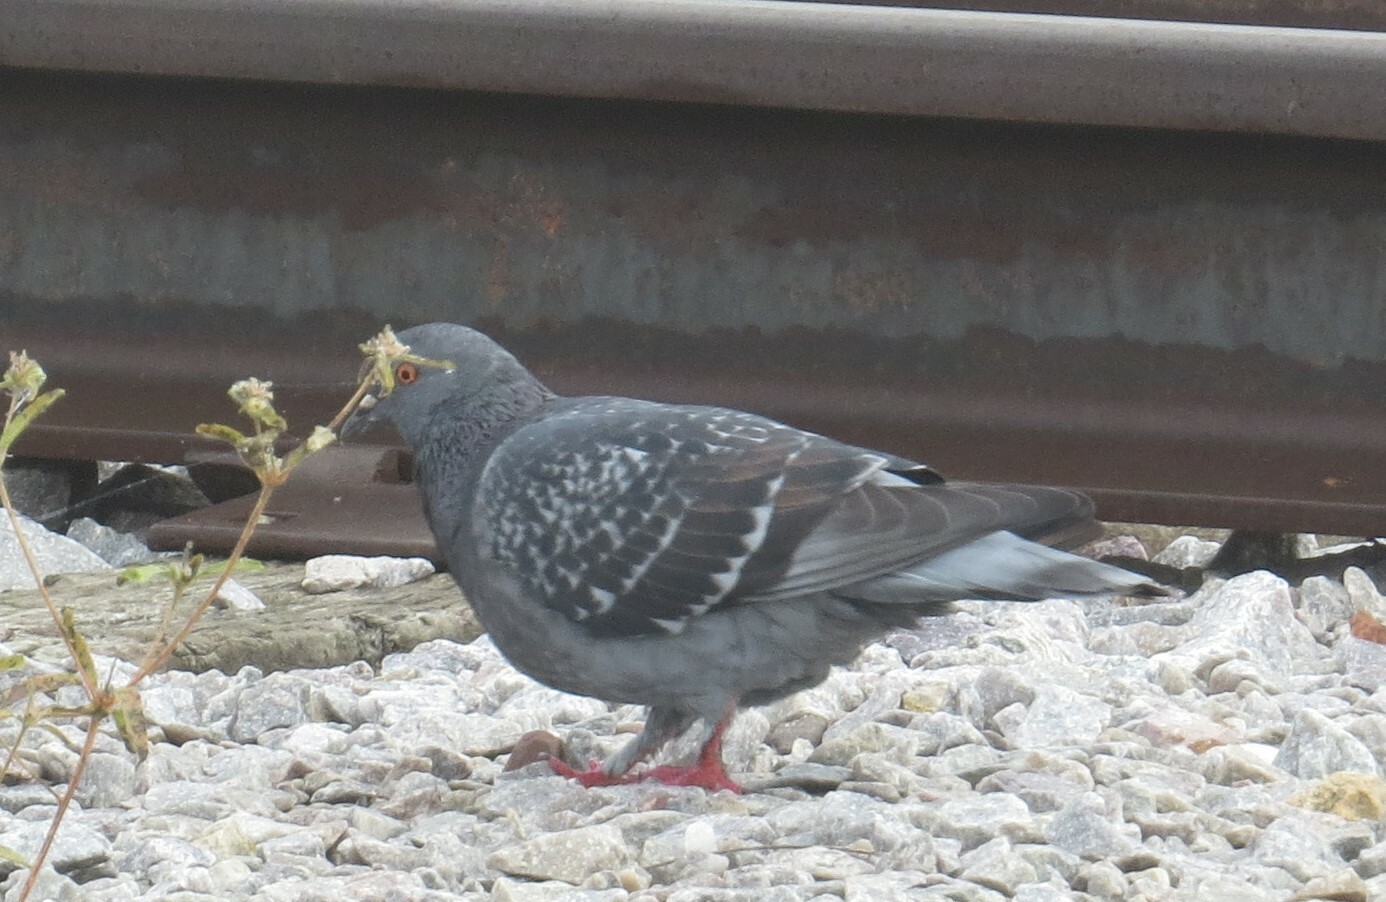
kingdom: Animalia
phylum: Chordata
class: Aves
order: Columbiformes
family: Columbidae
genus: Columba
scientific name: Columba livia
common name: Rock pigeon
